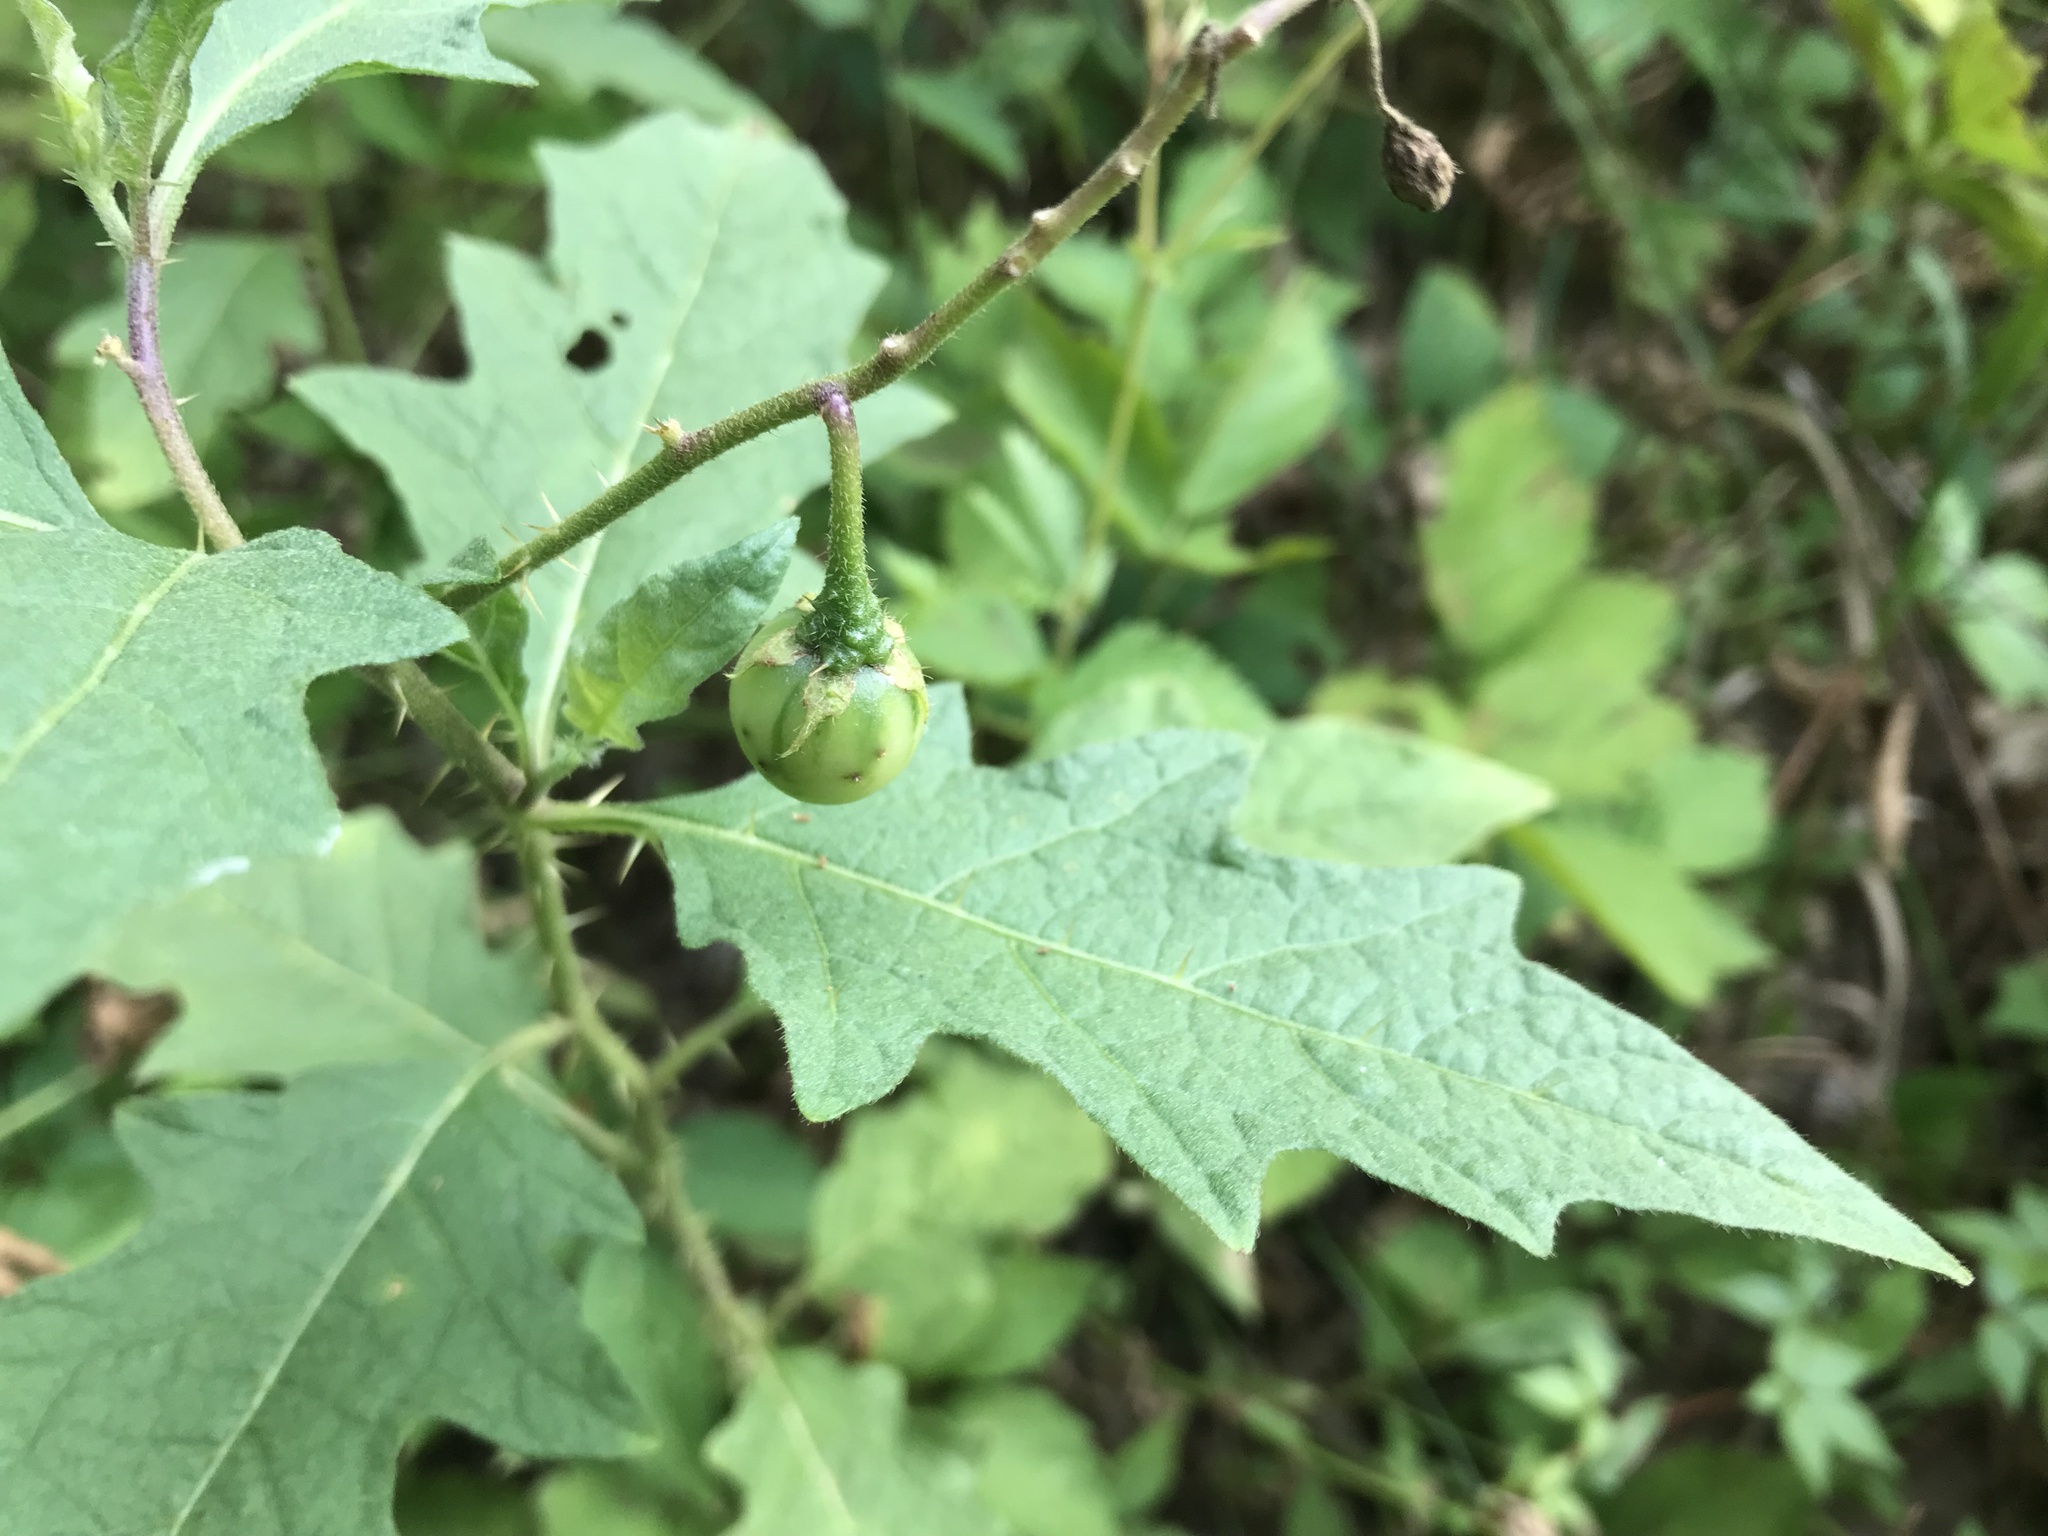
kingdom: Plantae
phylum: Tracheophyta
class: Magnoliopsida
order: Solanales
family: Solanaceae
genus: Solanum
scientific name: Solanum carolinense
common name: Horse-nettle
